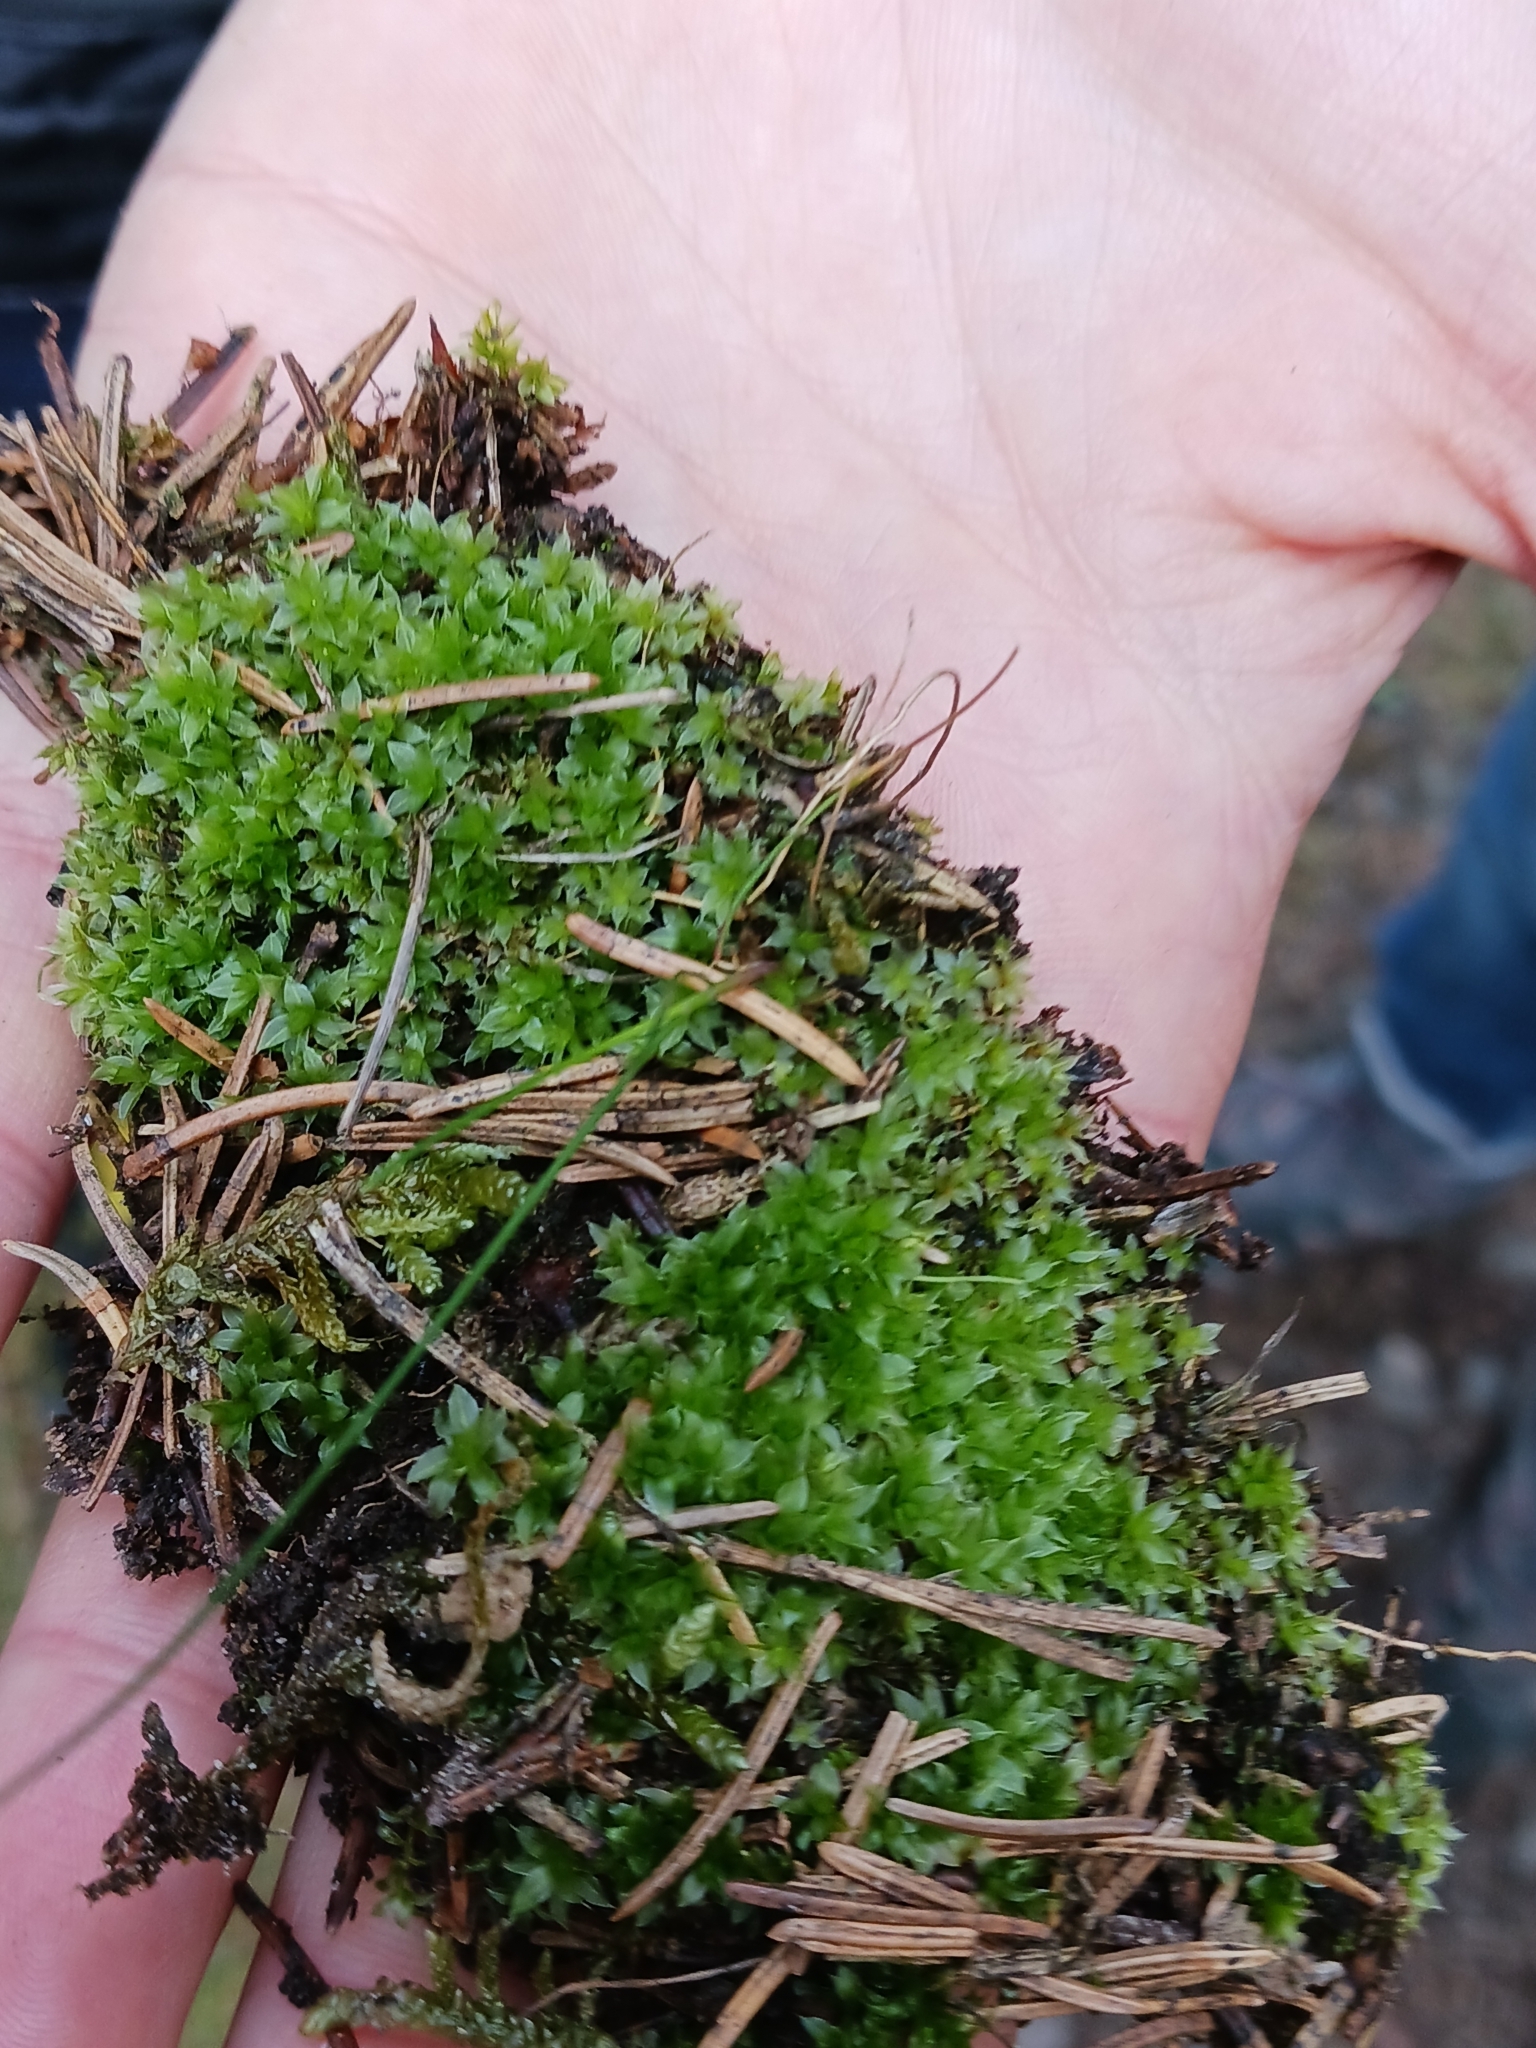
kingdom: Plantae
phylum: Bryophyta
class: Bryopsida
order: Bryales
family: Bryaceae
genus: Rosulabryum
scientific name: Rosulabryum capillare
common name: Capillary thread-moss
